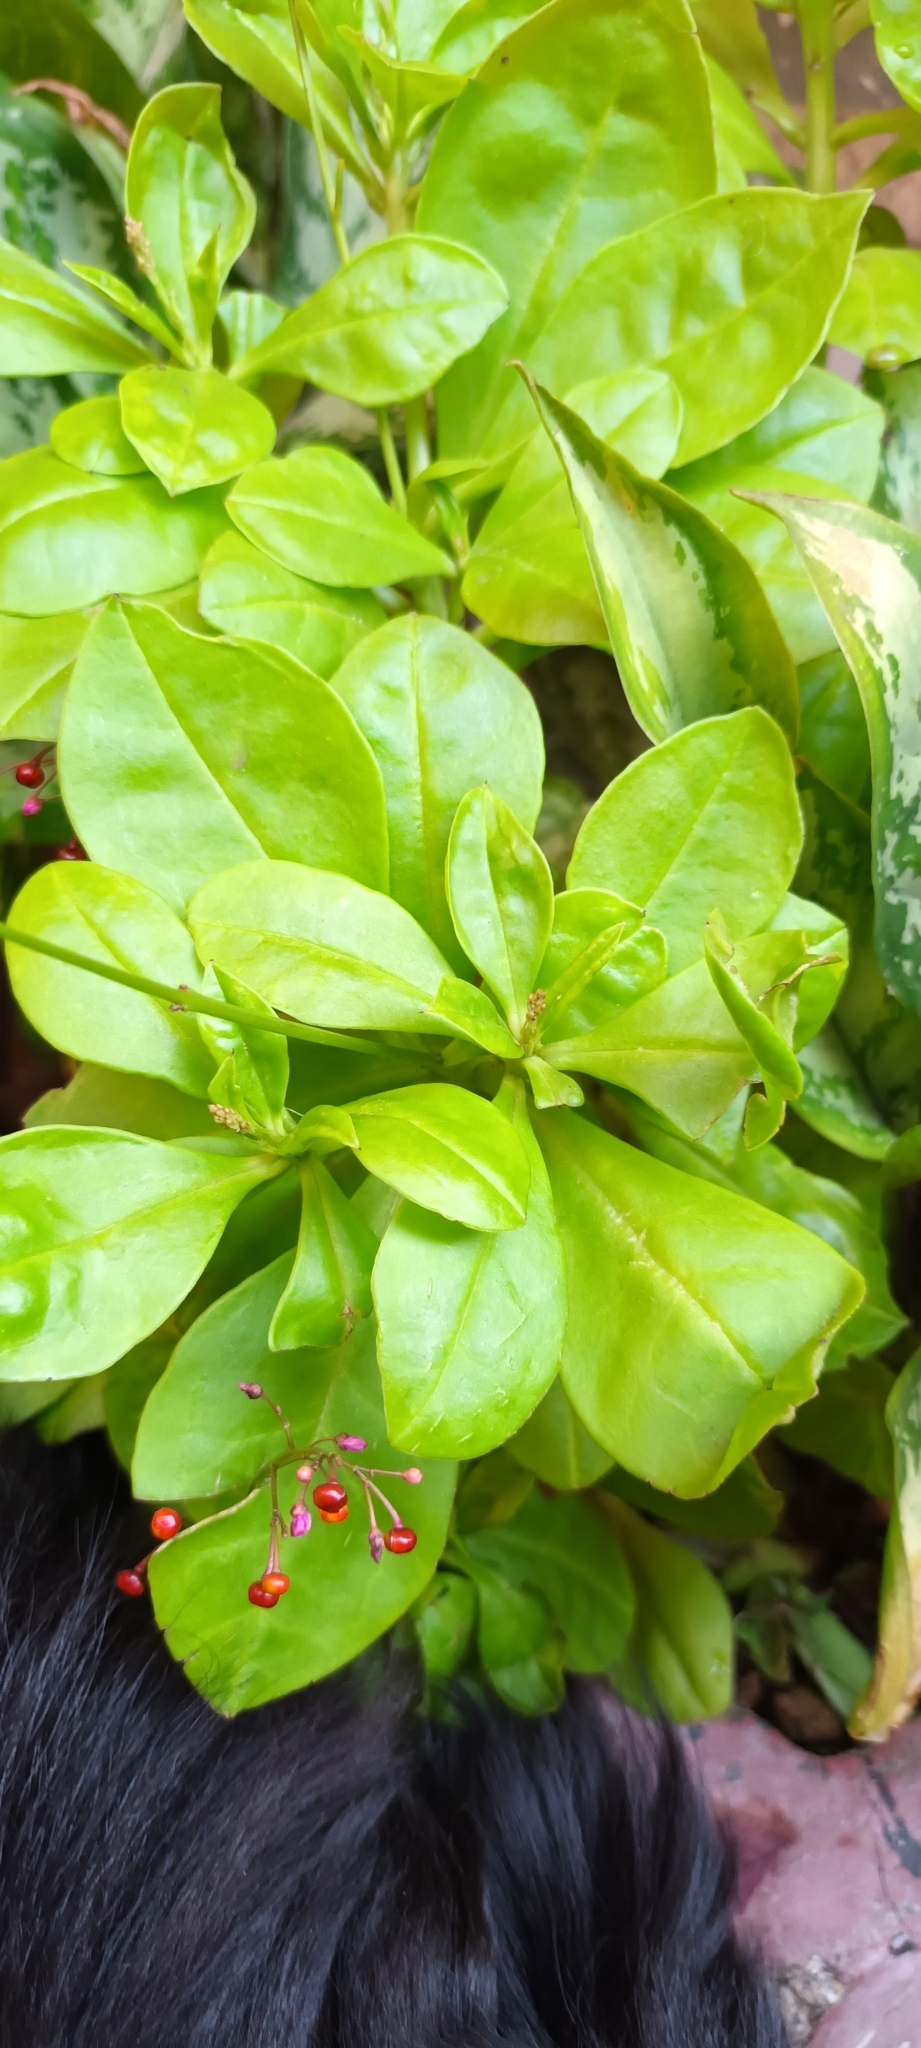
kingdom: Plantae
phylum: Tracheophyta
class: Magnoliopsida
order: Caryophyllales
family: Talinaceae
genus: Talinum
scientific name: Talinum paniculatum
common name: Jewels of opar
